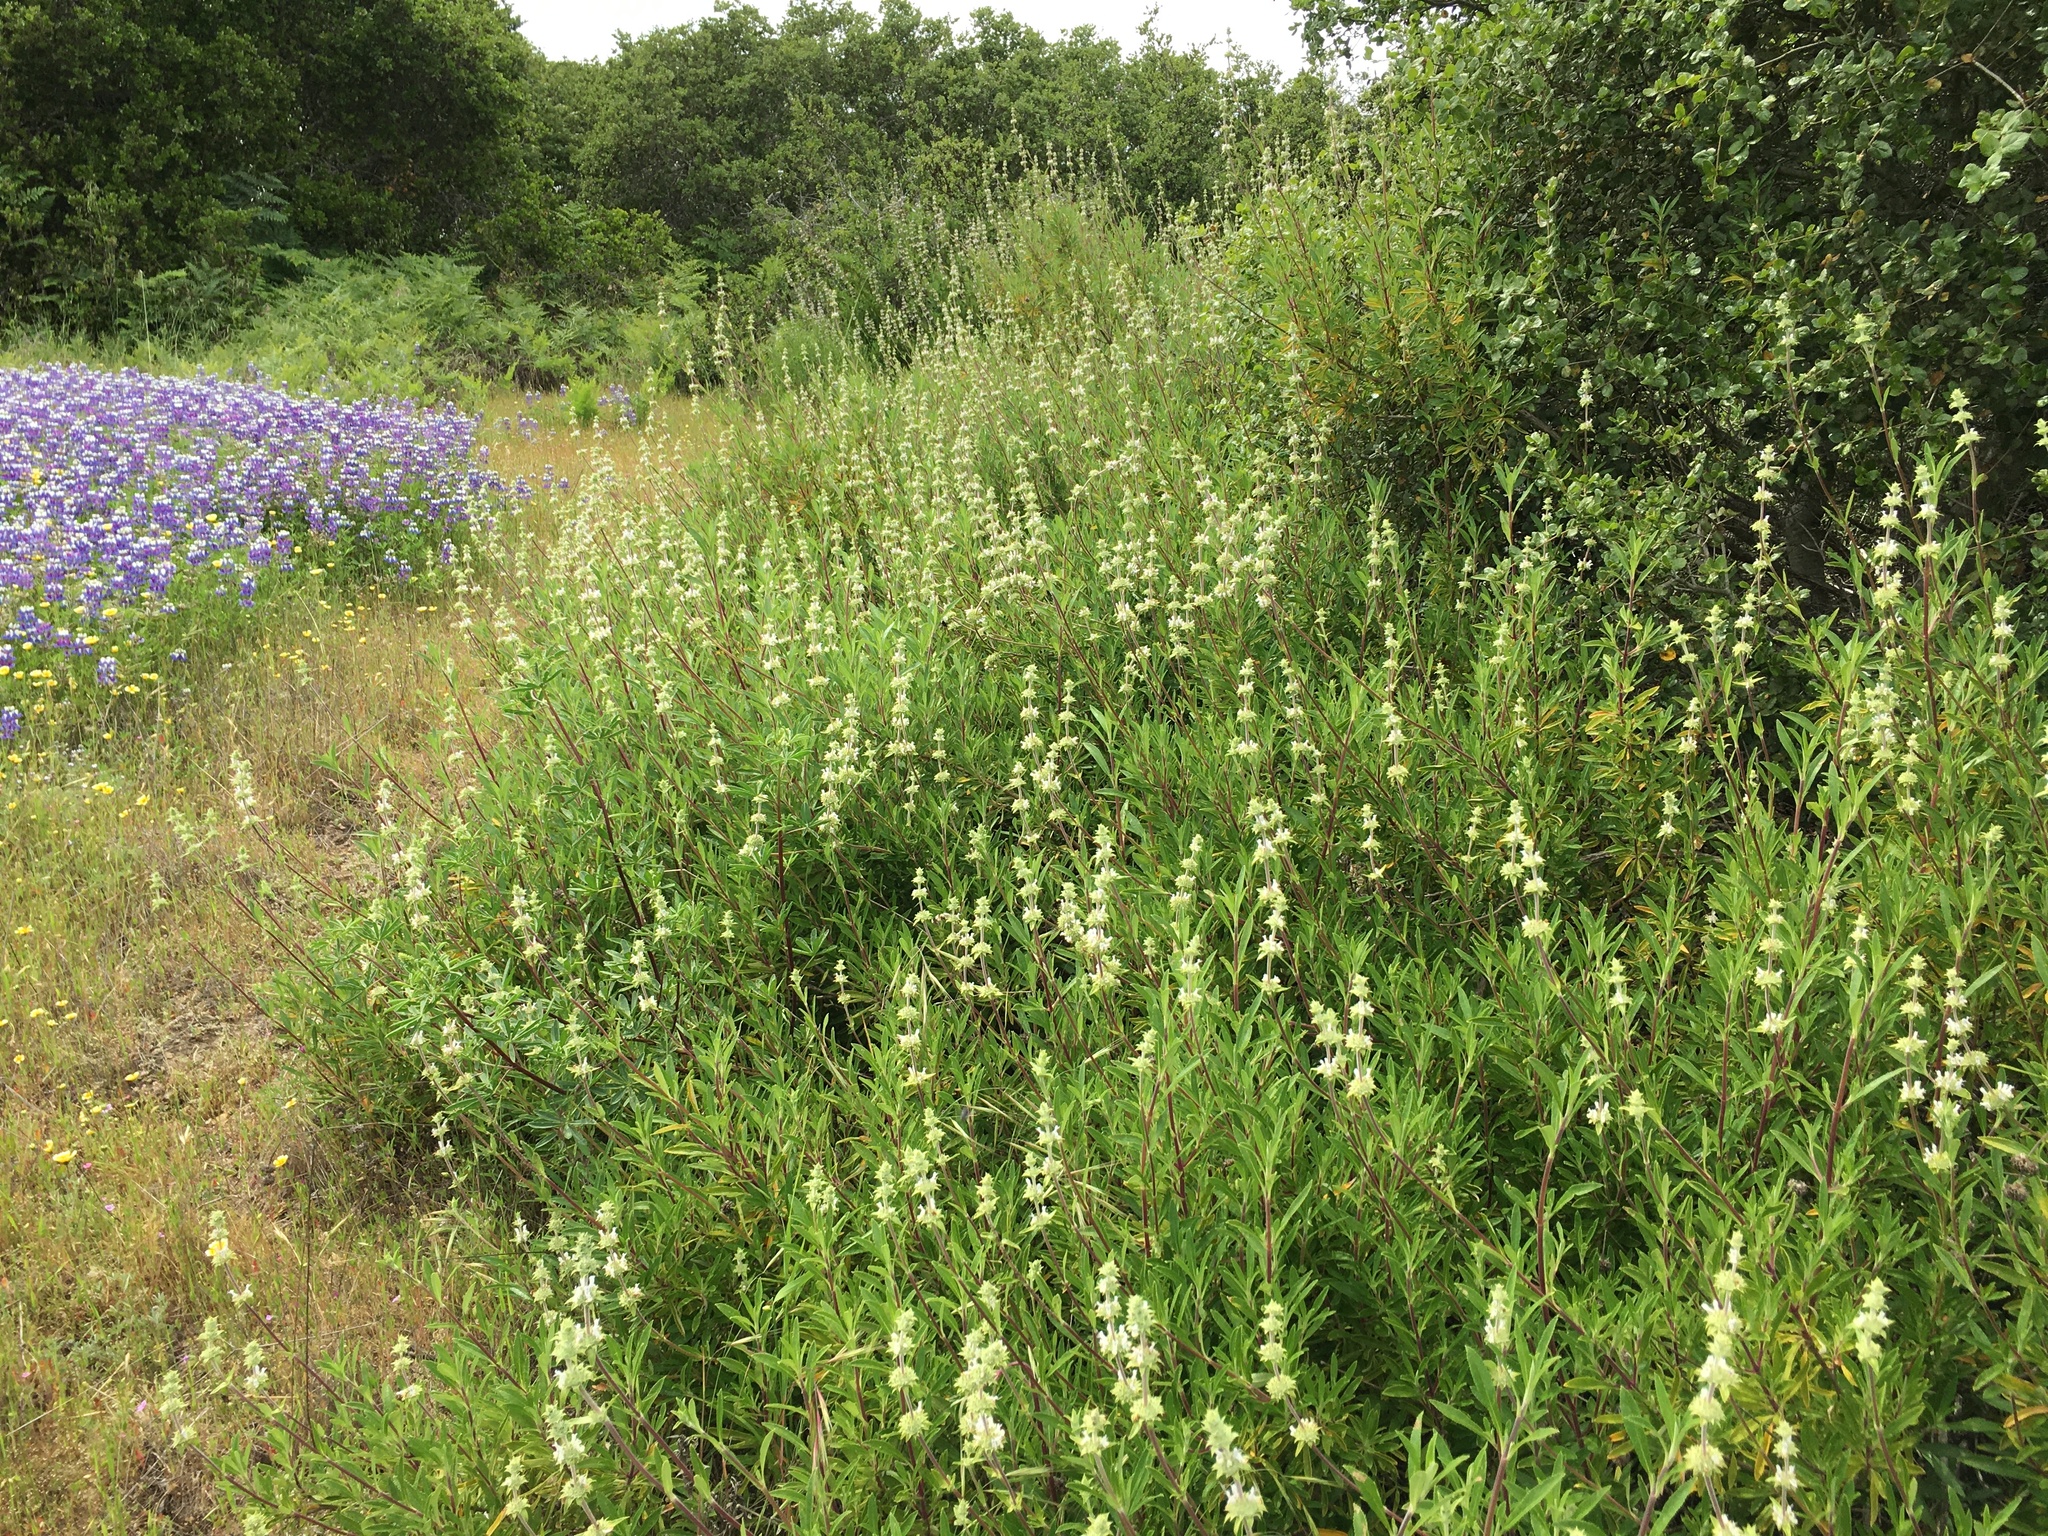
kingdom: Plantae
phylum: Tracheophyta
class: Magnoliopsida
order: Lamiales
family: Lamiaceae
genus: Salvia
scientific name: Salvia mellifera
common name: Black sage
